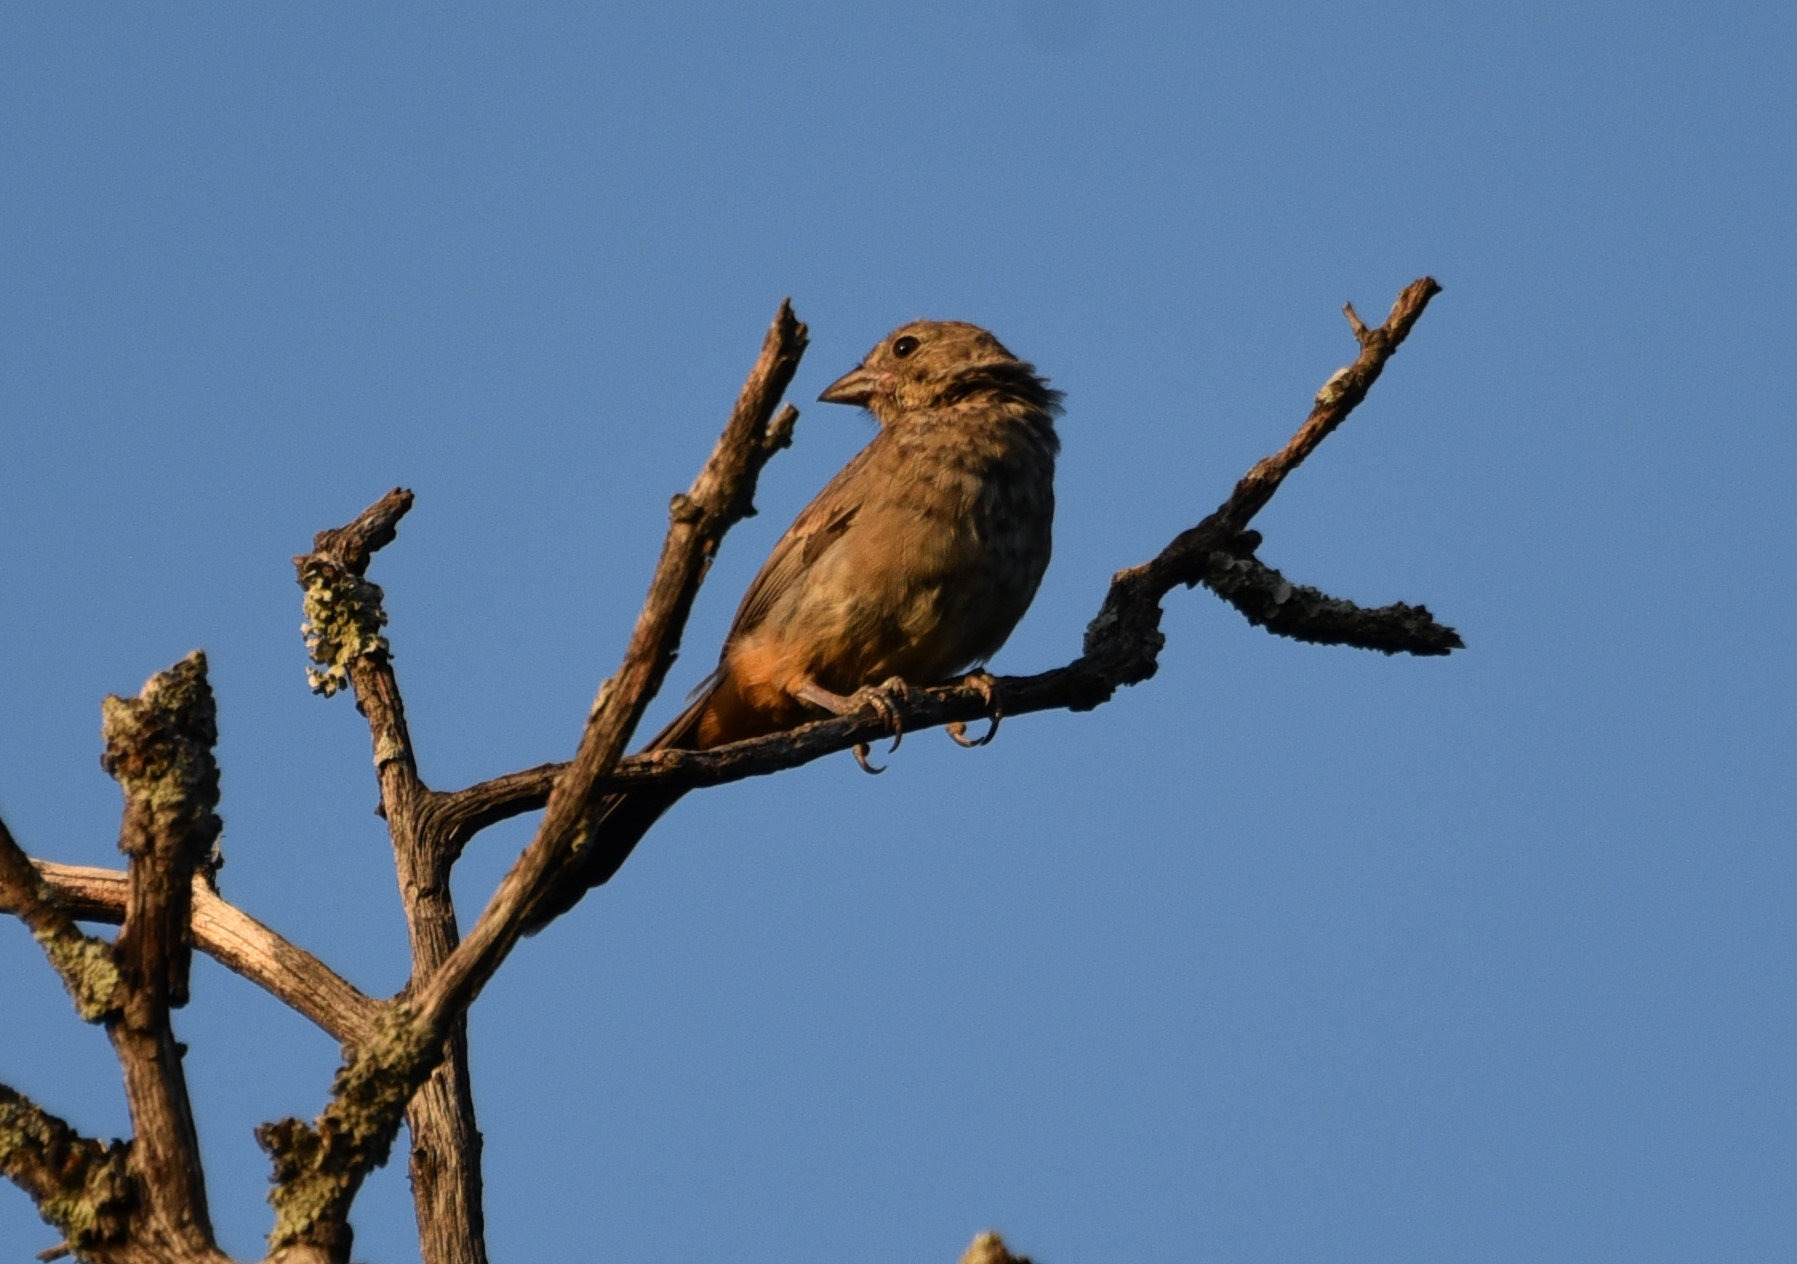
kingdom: Animalia
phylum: Chordata
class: Aves
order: Passeriformes
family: Passerellidae
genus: Melozone
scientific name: Melozone fusca
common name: Canyon towhee
